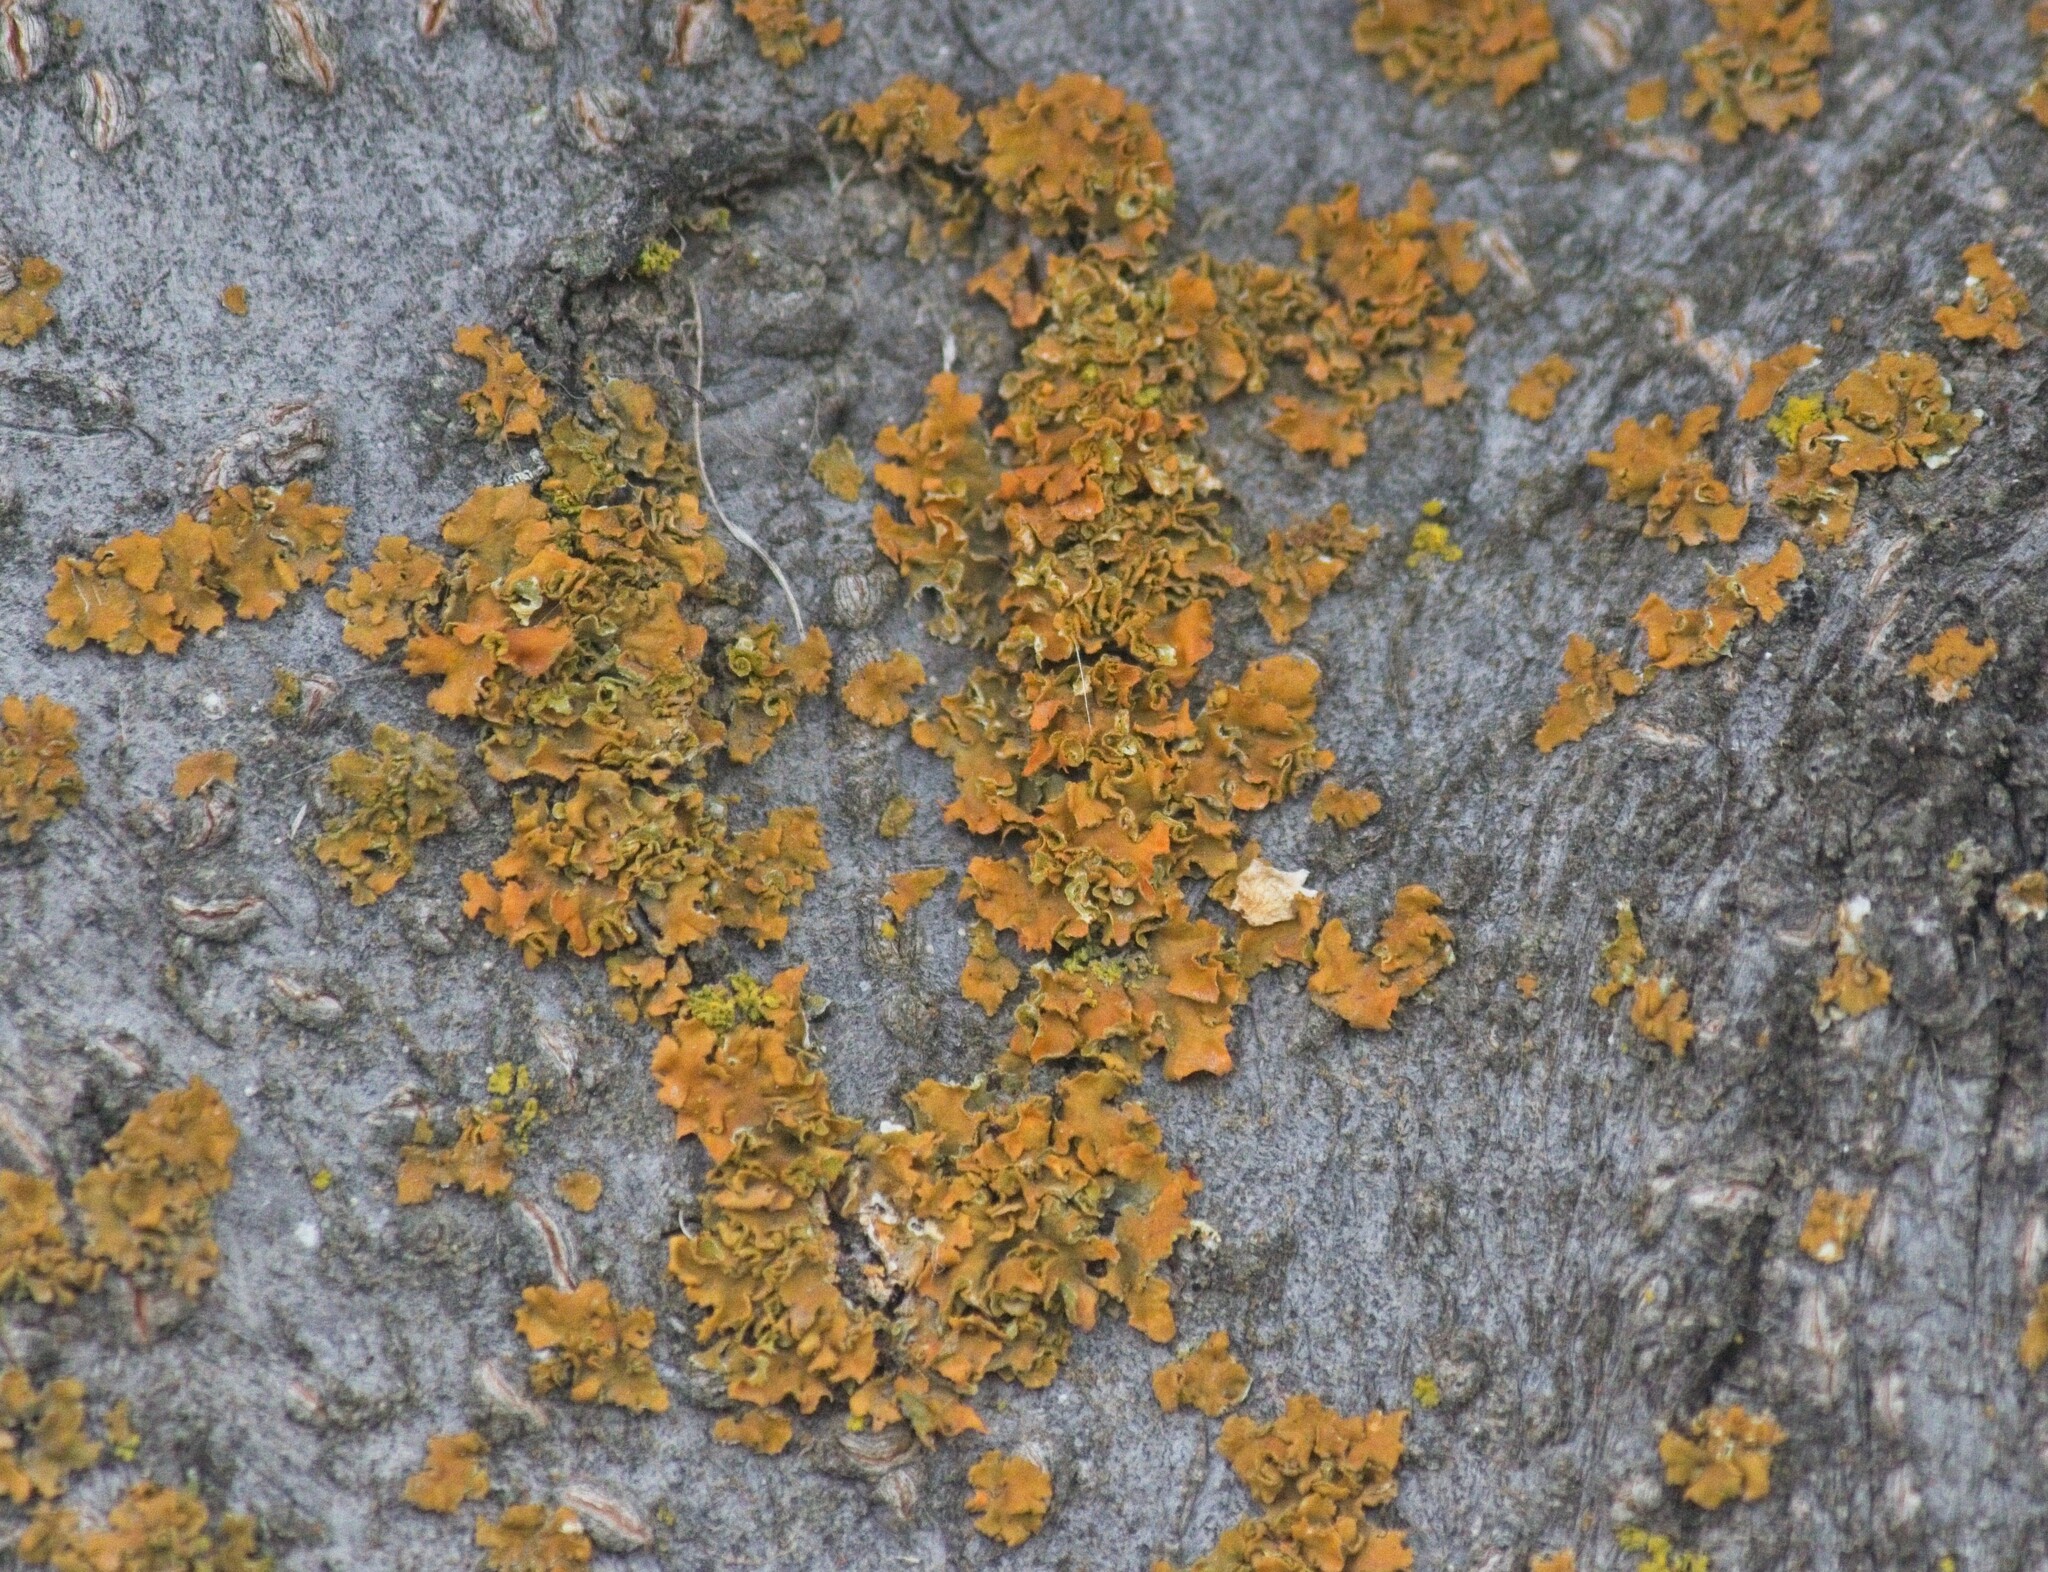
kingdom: Fungi
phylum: Ascomycota
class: Lecanoromycetes
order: Teloschistales
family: Teloschistaceae
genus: Oxneria
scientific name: Oxneria fallax
